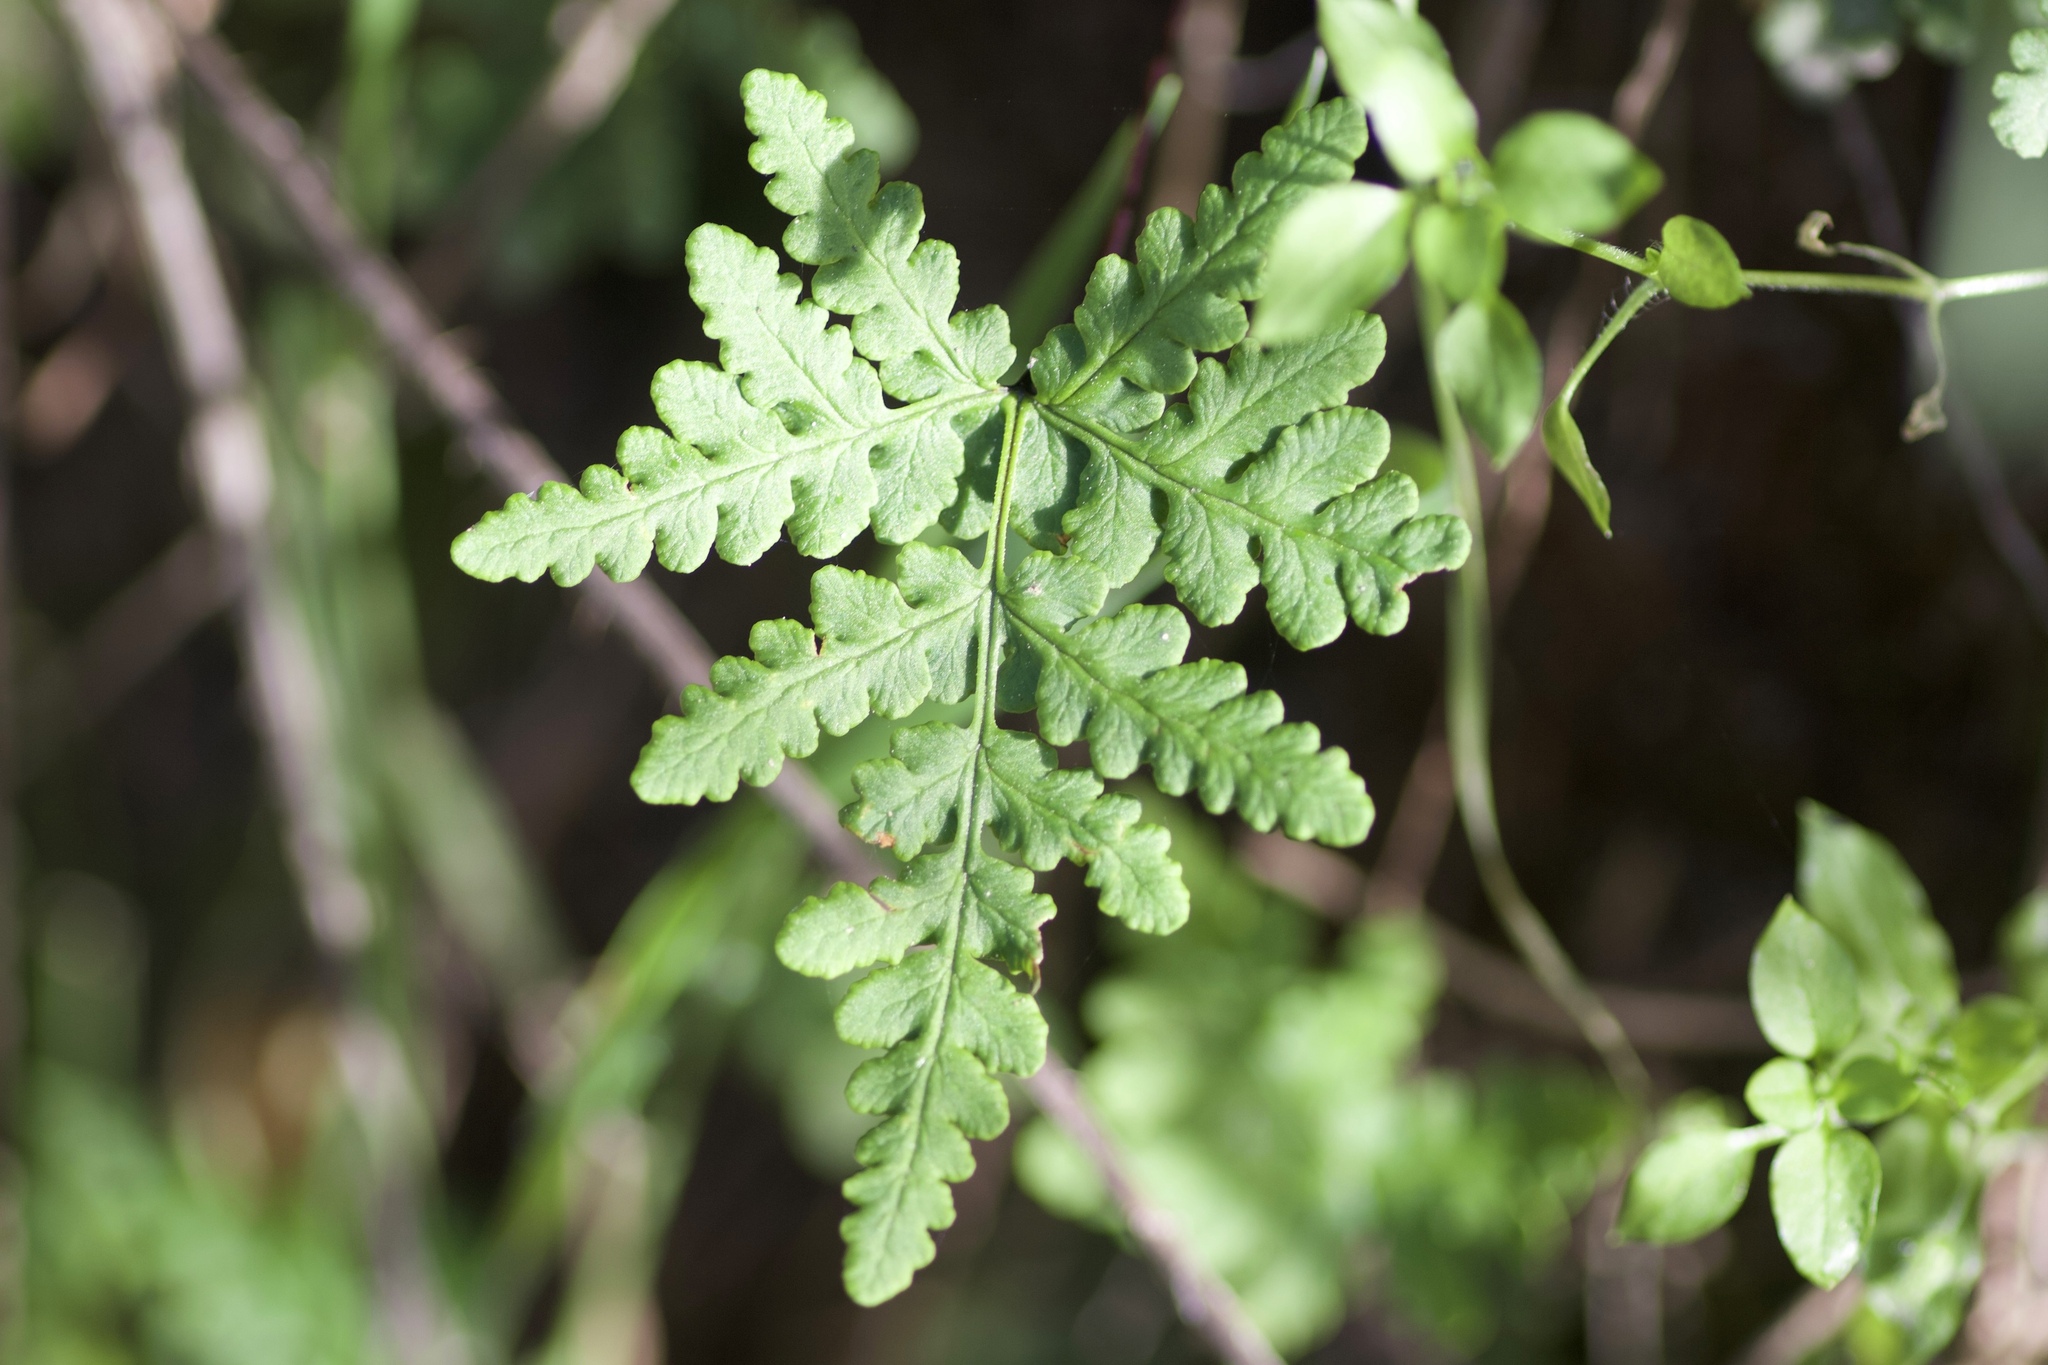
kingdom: Plantae
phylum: Tracheophyta
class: Polypodiopsida
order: Polypodiales
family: Pteridaceae
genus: Pentagramma
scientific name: Pentagramma triangularis
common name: Gold fern
